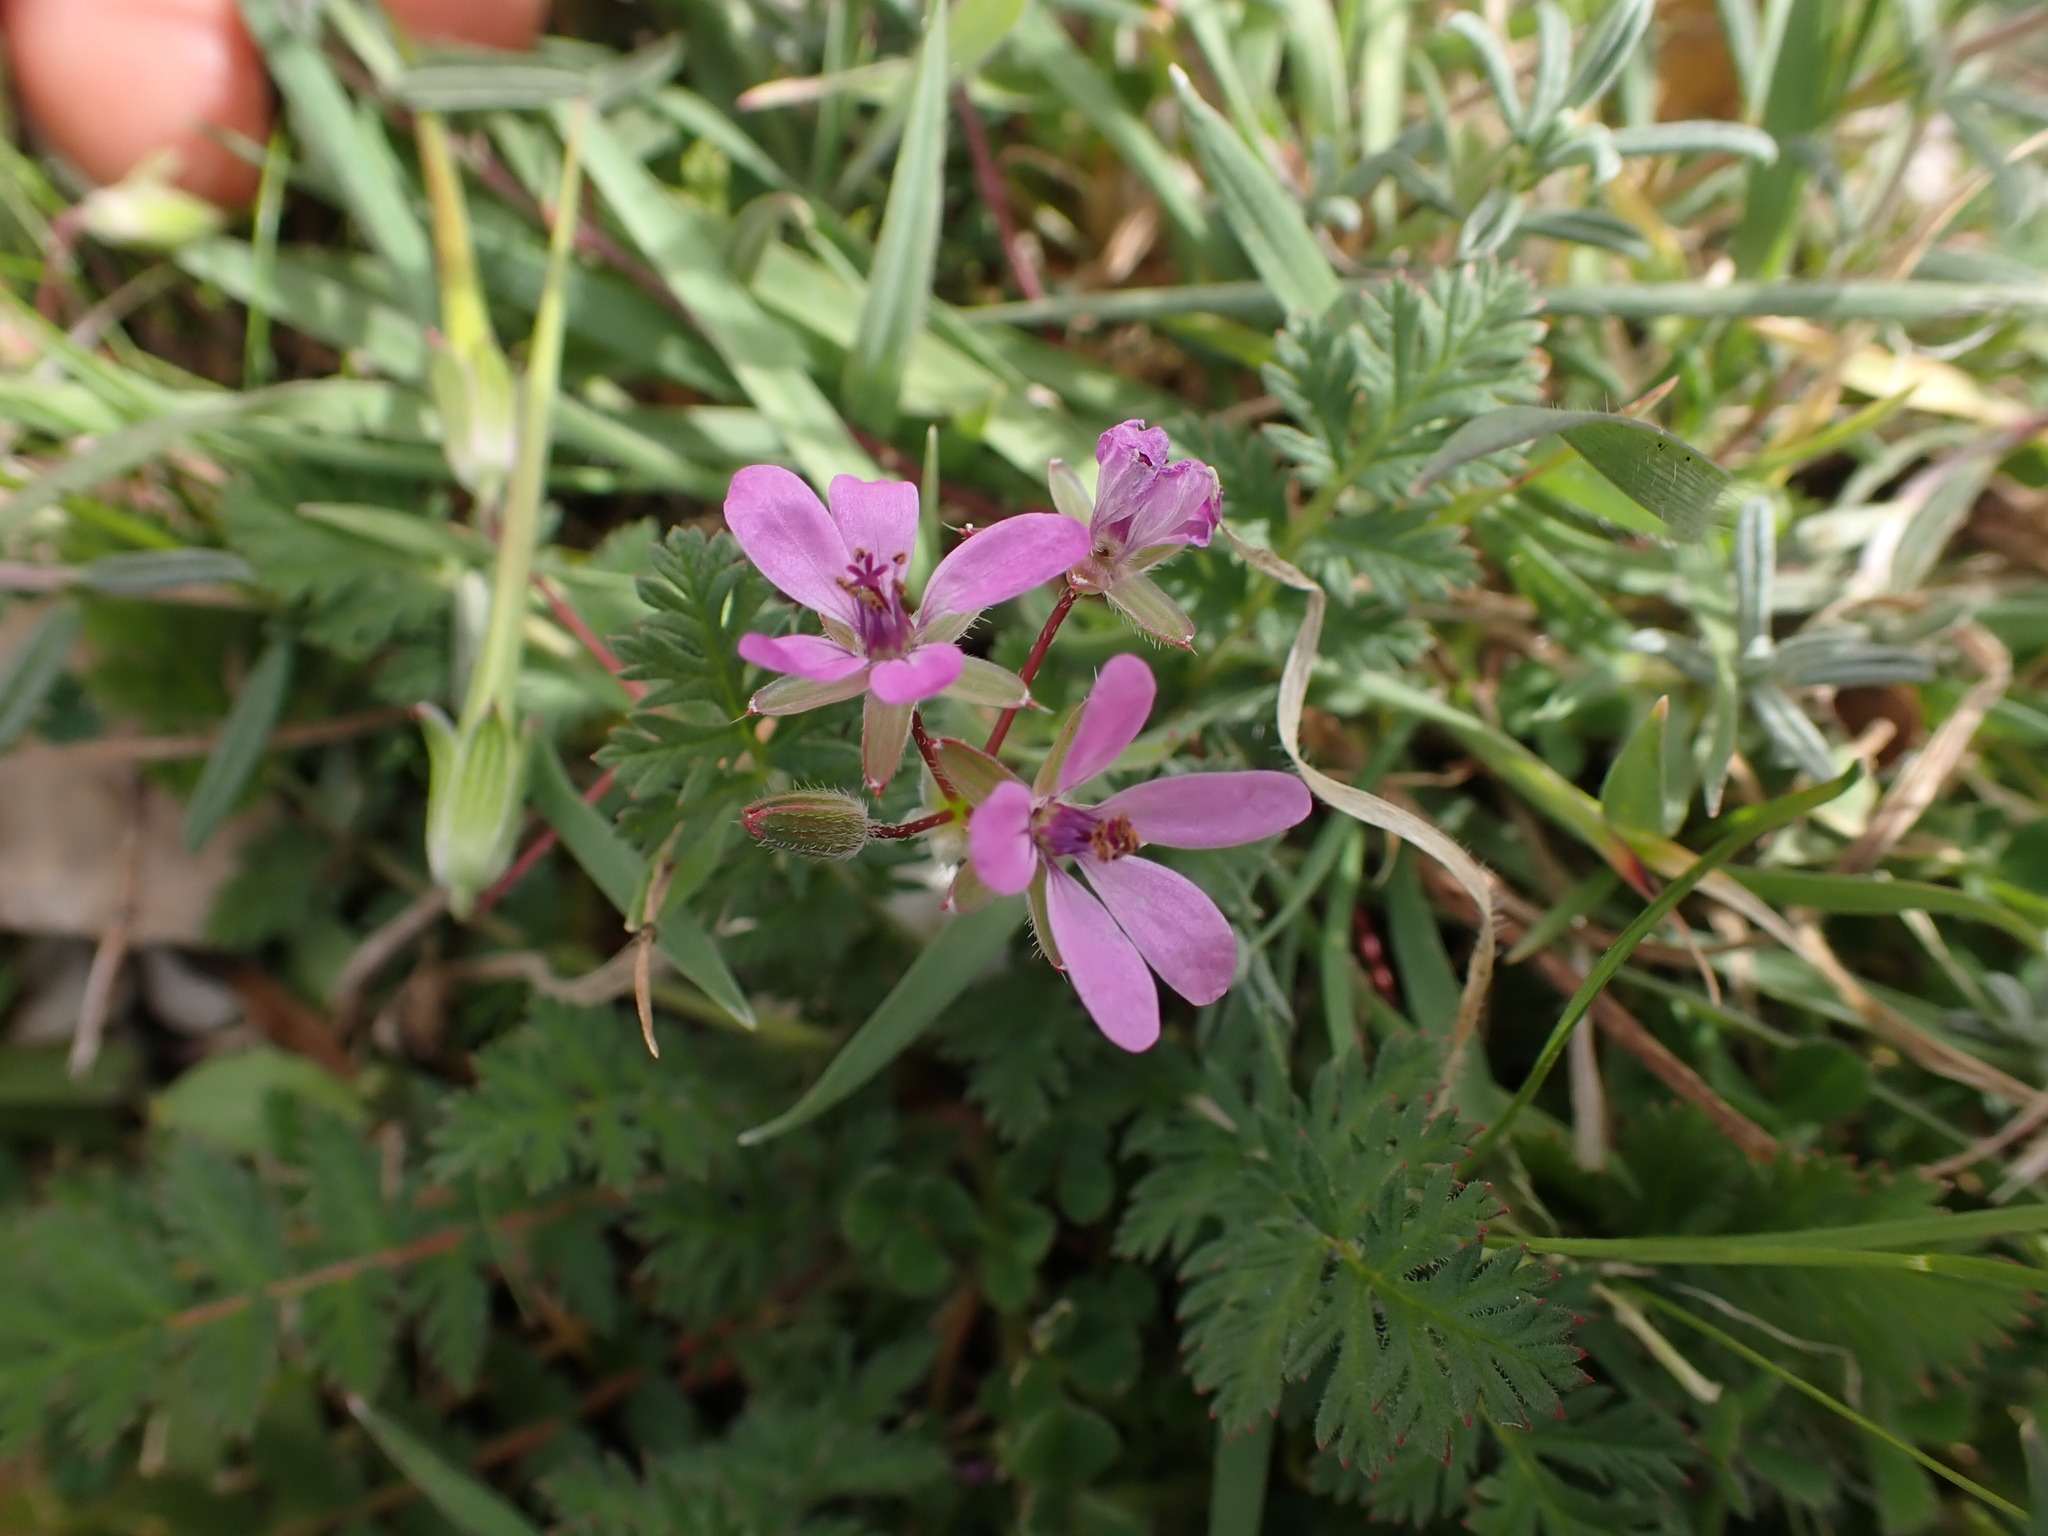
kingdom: Plantae
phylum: Tracheophyta
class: Magnoliopsida
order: Geraniales
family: Geraniaceae
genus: Erodium
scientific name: Erodium cicutarium
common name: Common stork's-bill
